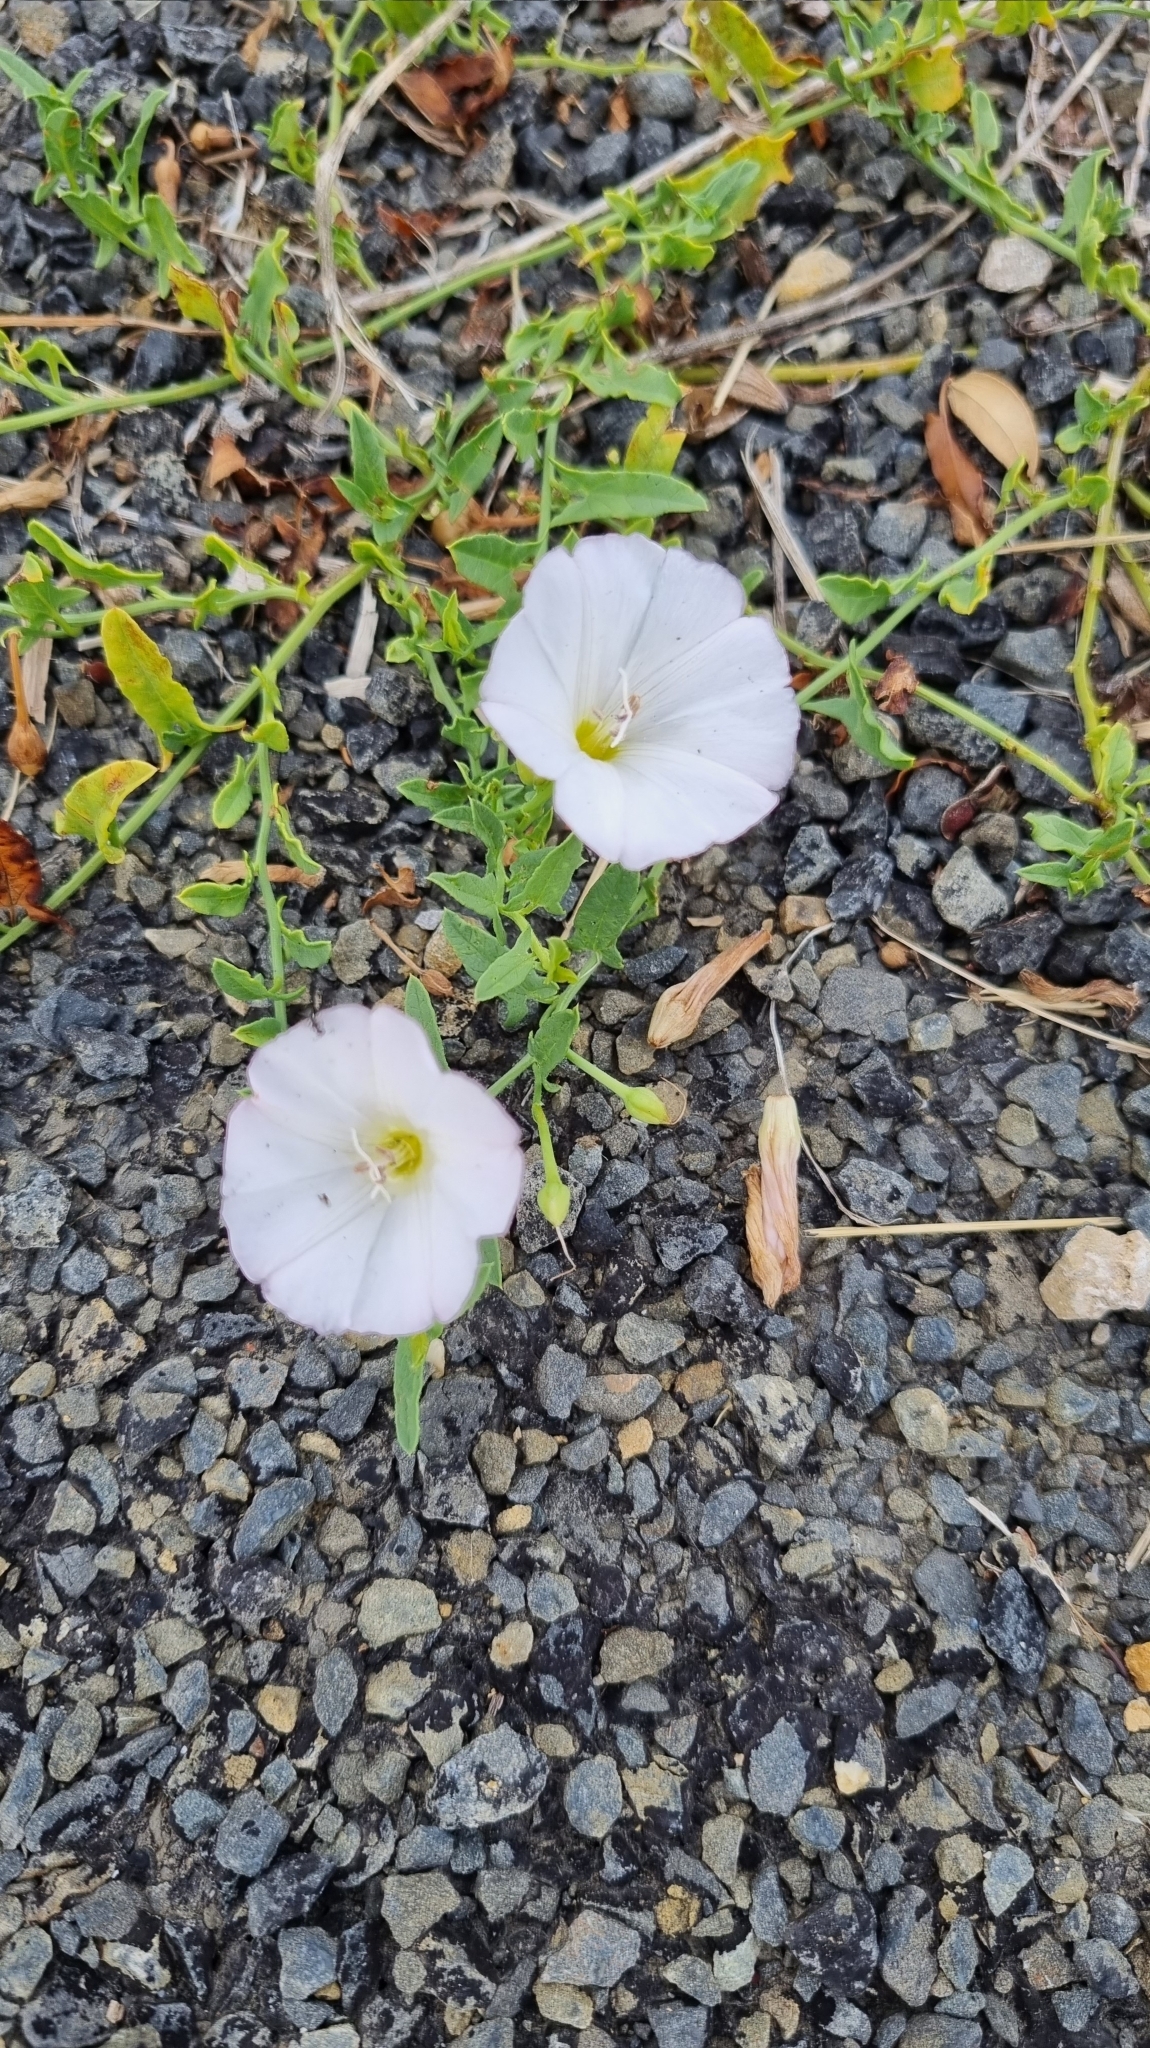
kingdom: Plantae
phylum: Tracheophyta
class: Magnoliopsida
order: Solanales
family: Convolvulaceae
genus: Convolvulus
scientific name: Convolvulus arvensis
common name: Field bindweed
